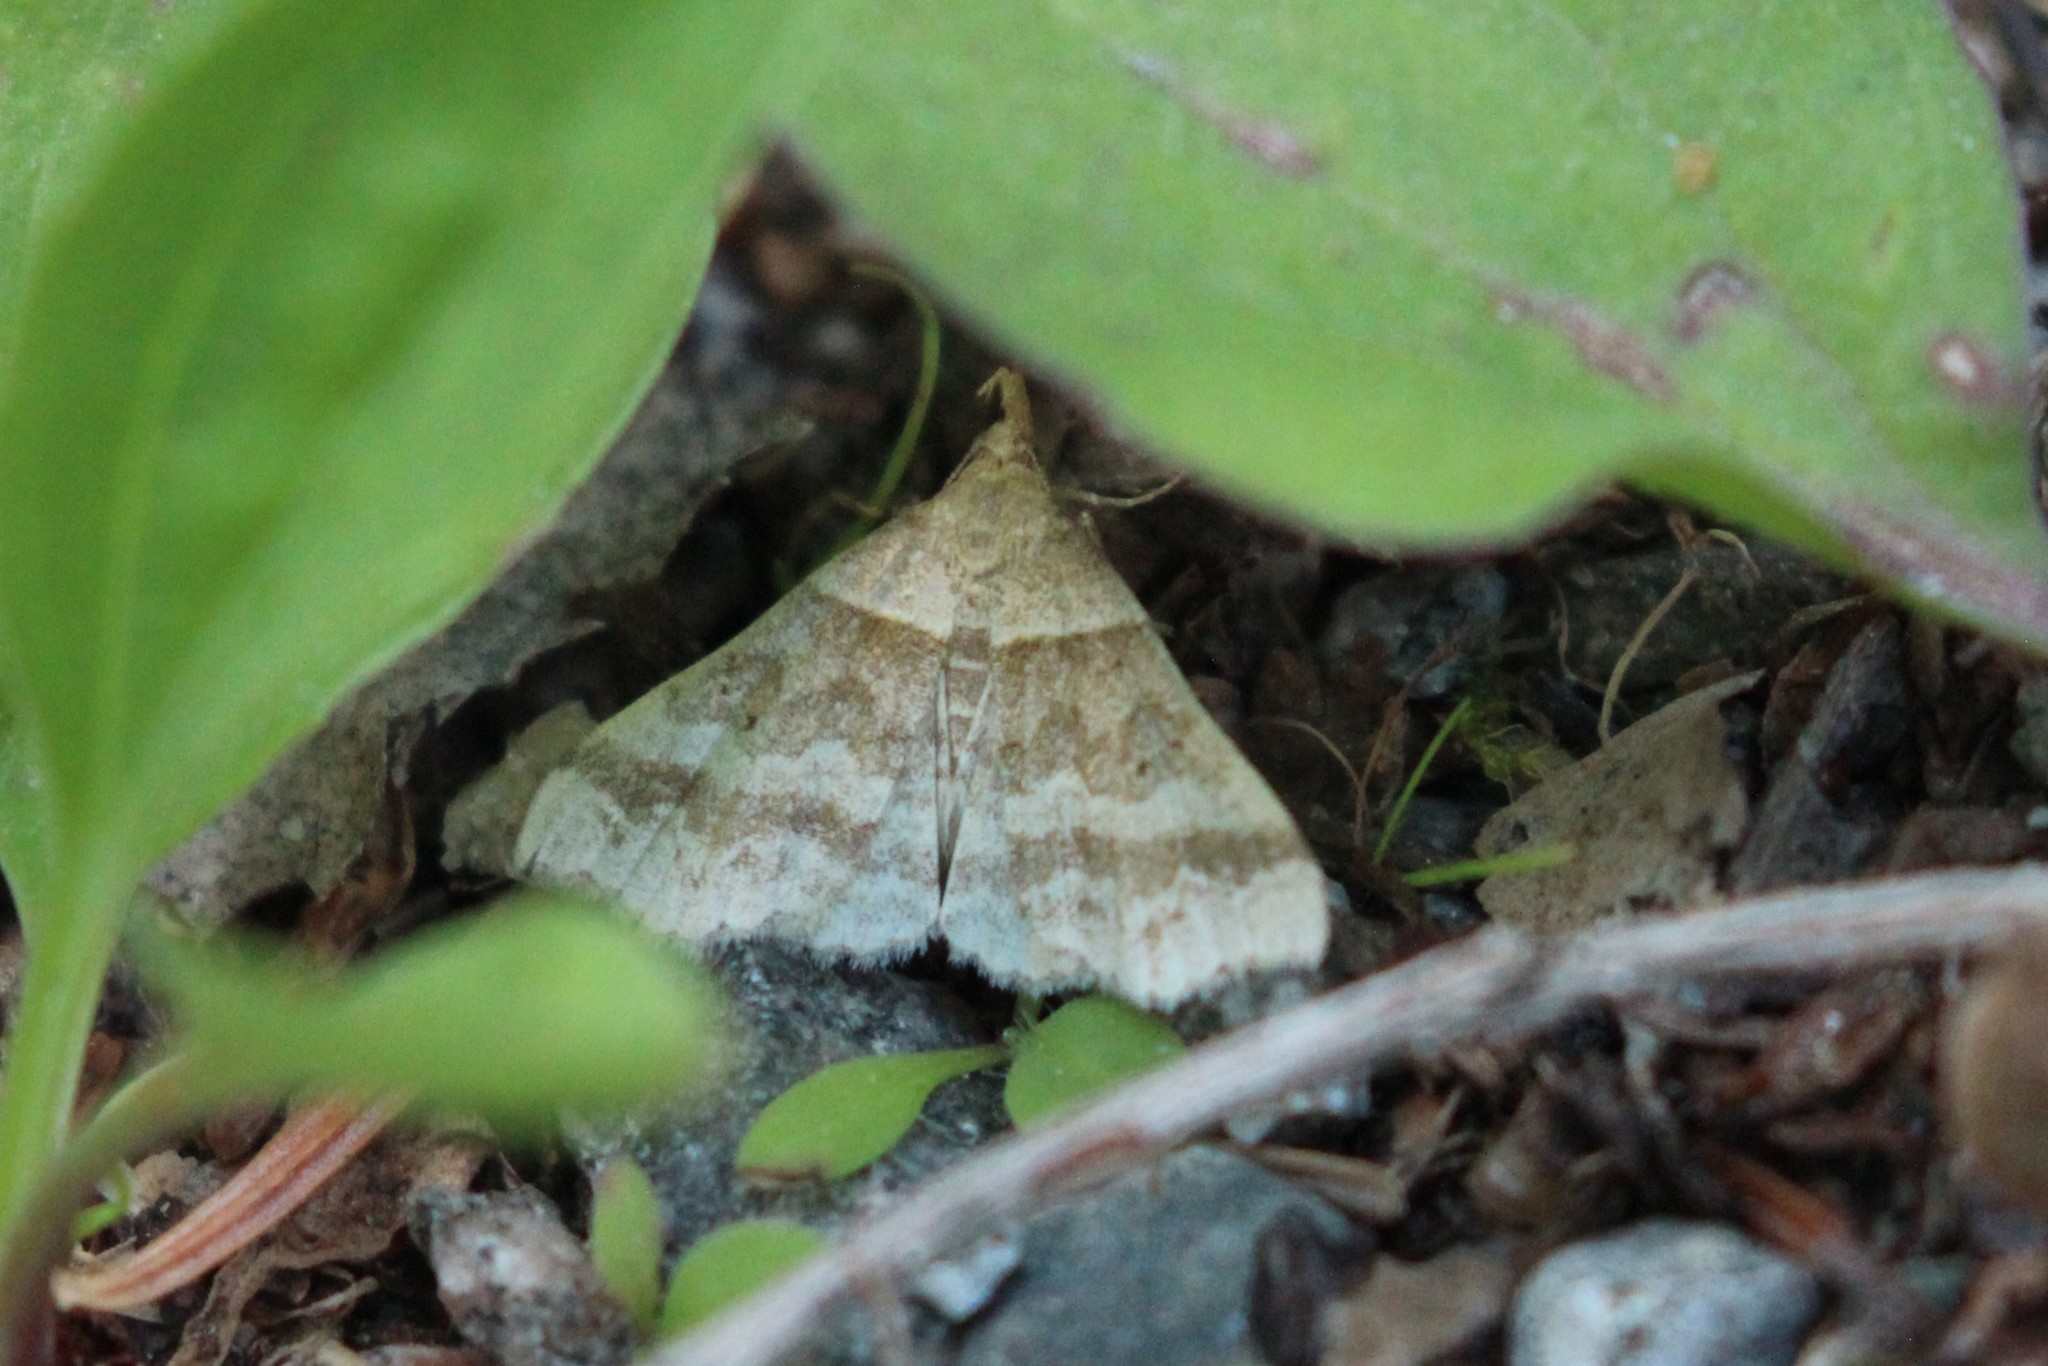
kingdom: Animalia
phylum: Arthropoda
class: Insecta
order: Lepidoptera
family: Erebidae
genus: Phaeolita
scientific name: Phaeolita pyramusalis
